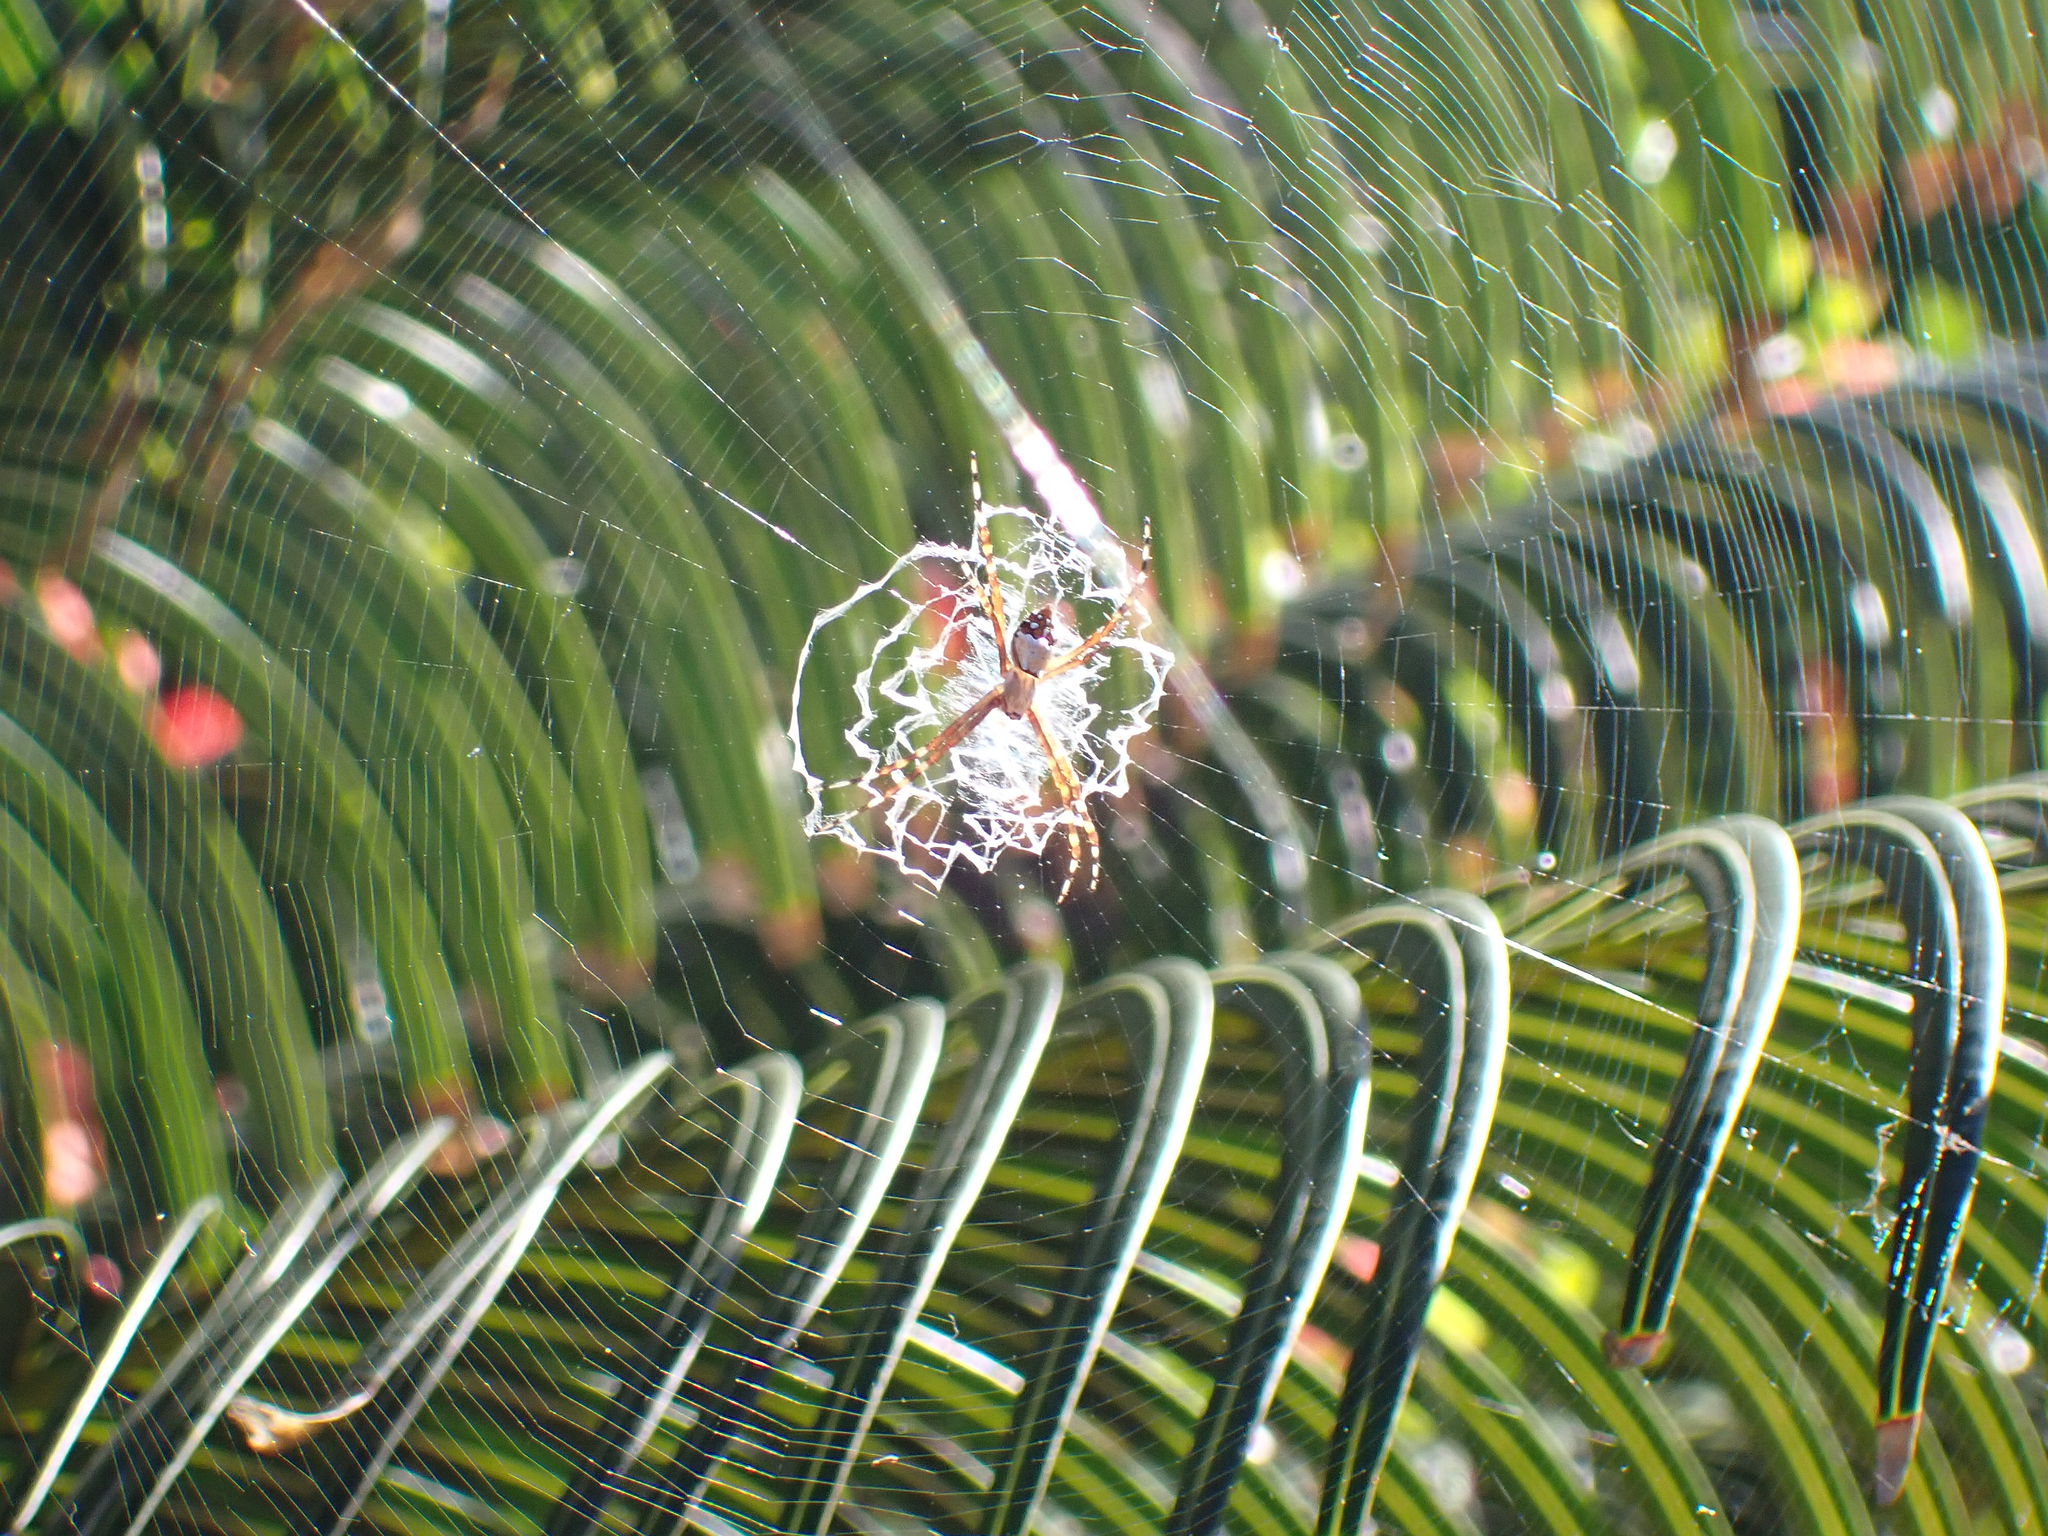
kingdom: Animalia
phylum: Arthropoda
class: Arachnida
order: Araneae
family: Araneidae
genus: Argiope
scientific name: Argiope argentata
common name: Orb weavers
